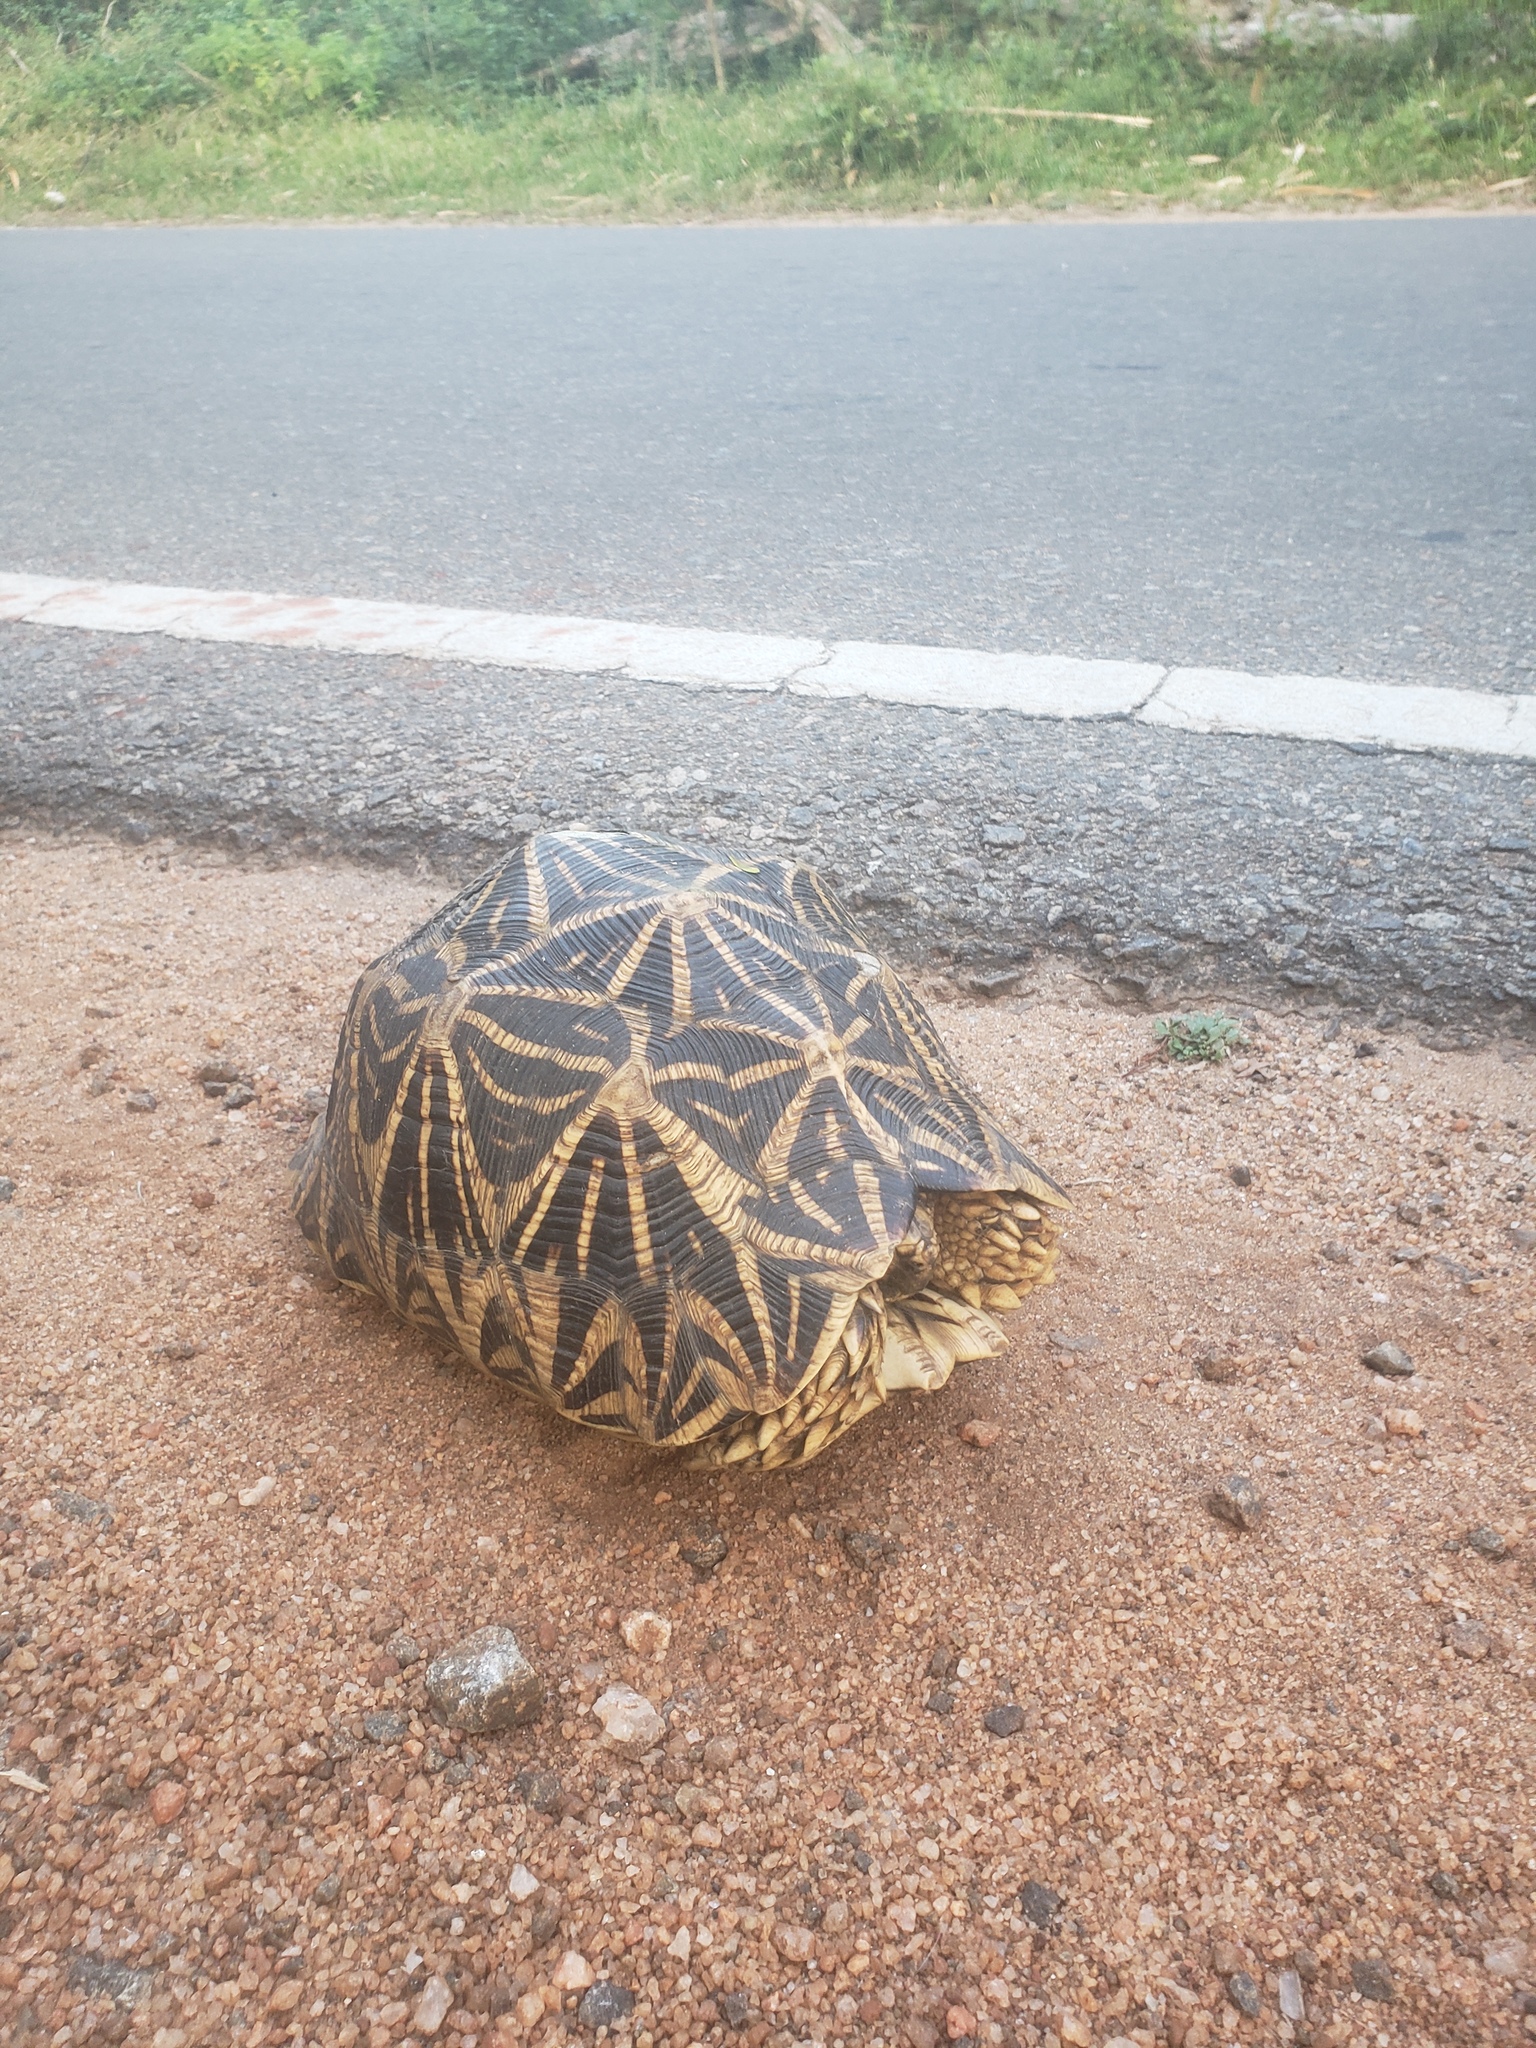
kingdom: Animalia
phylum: Chordata
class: Testudines
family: Testudinidae
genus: Geochelone
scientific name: Geochelone elegans
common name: Indian star tortoise
